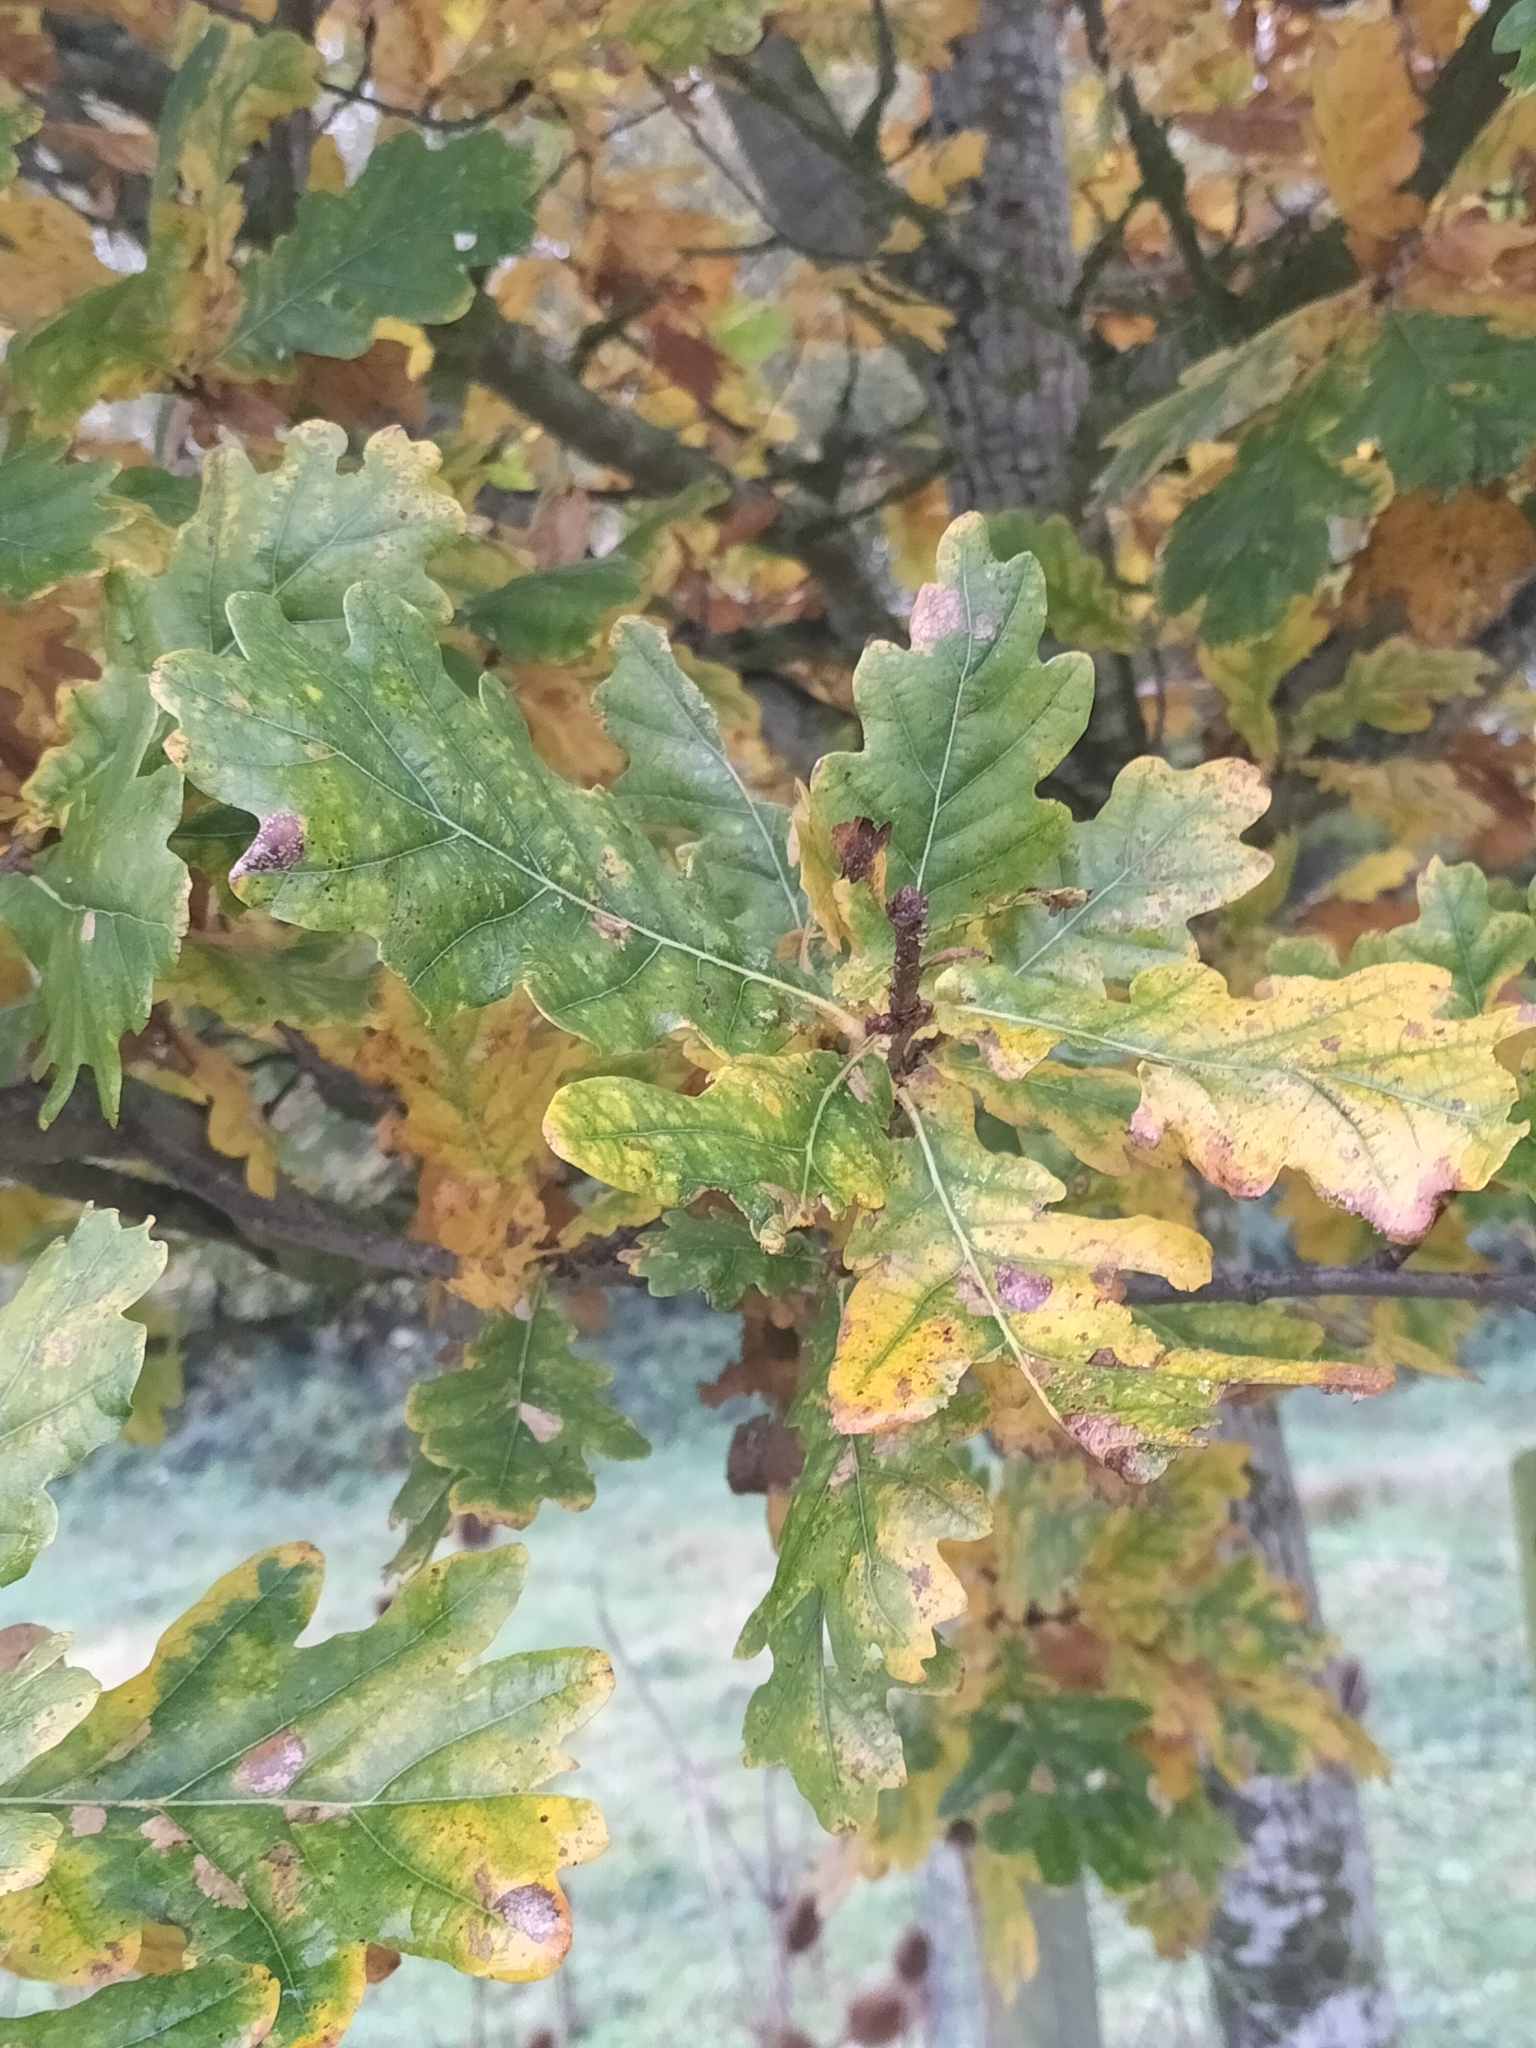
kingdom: Plantae
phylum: Tracheophyta
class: Magnoliopsida
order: Fagales
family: Fagaceae
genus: Quercus
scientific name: Quercus robur
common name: Pedunculate oak
